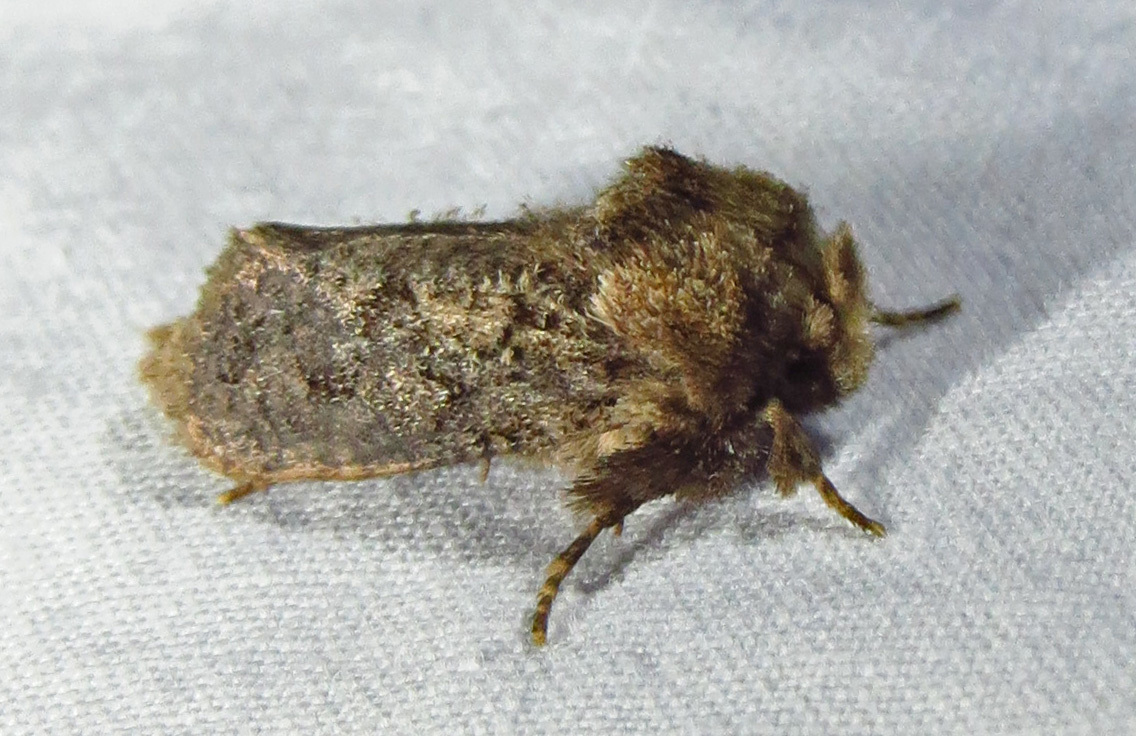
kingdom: Animalia
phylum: Arthropoda
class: Insecta
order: Lepidoptera
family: Tineidae
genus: Acrolophus
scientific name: Acrolophus arcanella
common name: Arcane grass tubeworm moth
